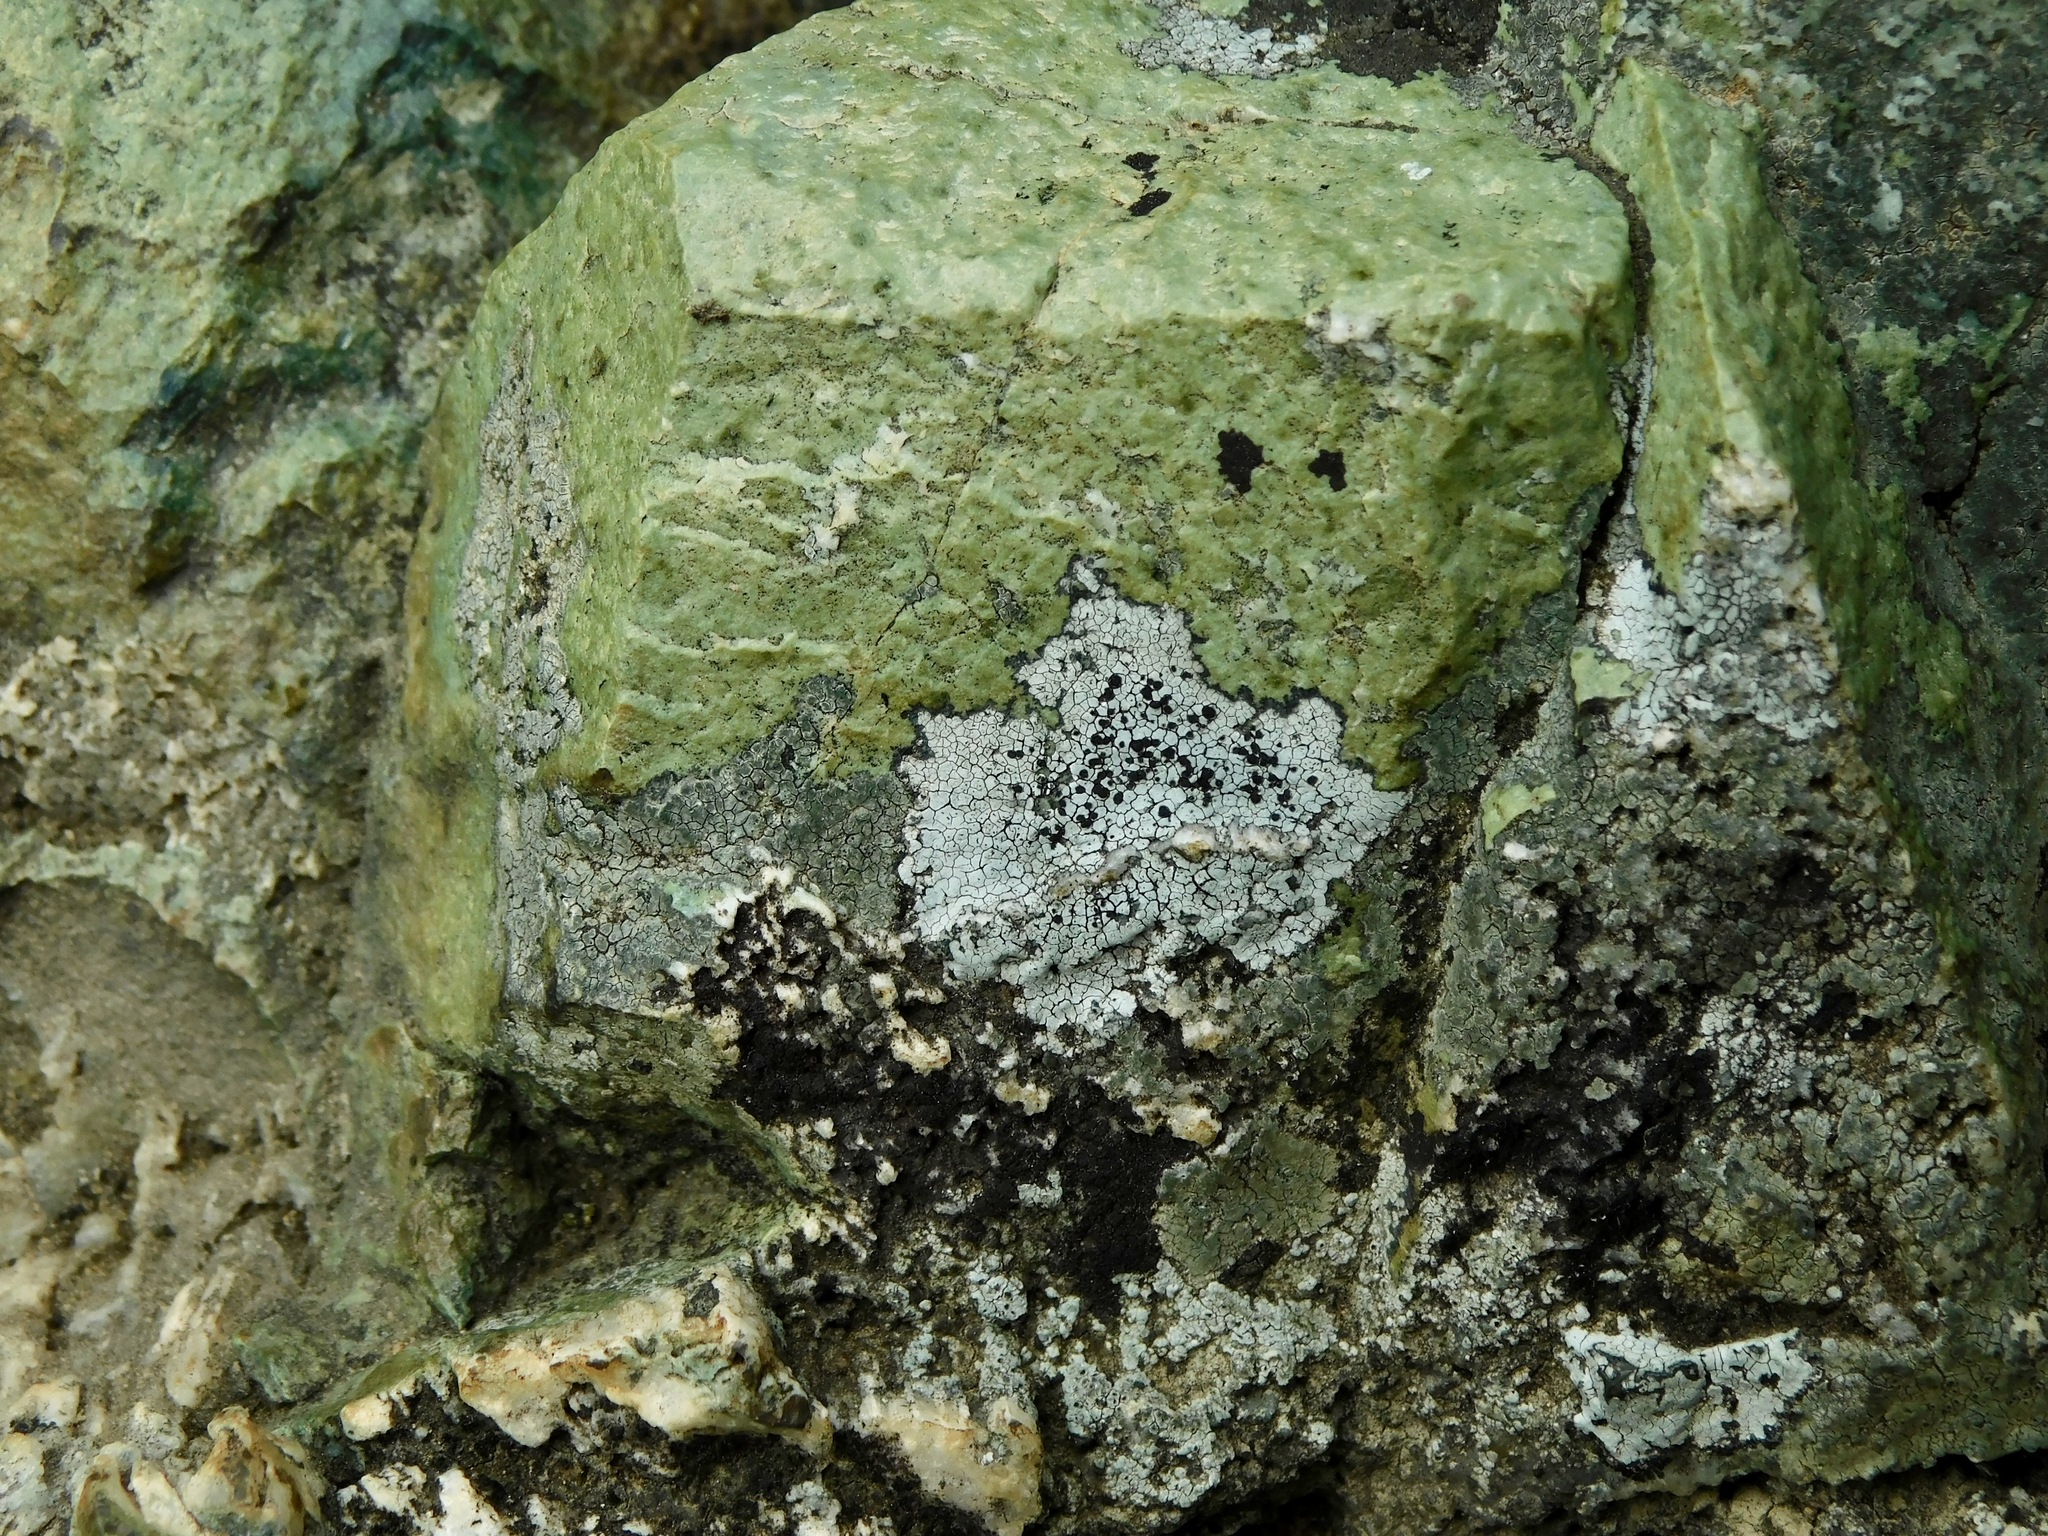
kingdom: Fungi
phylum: Ascomycota
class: Lecanoromycetes
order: Caliciales
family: Caliciaceae
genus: Buellia
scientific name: Buellia spuria
